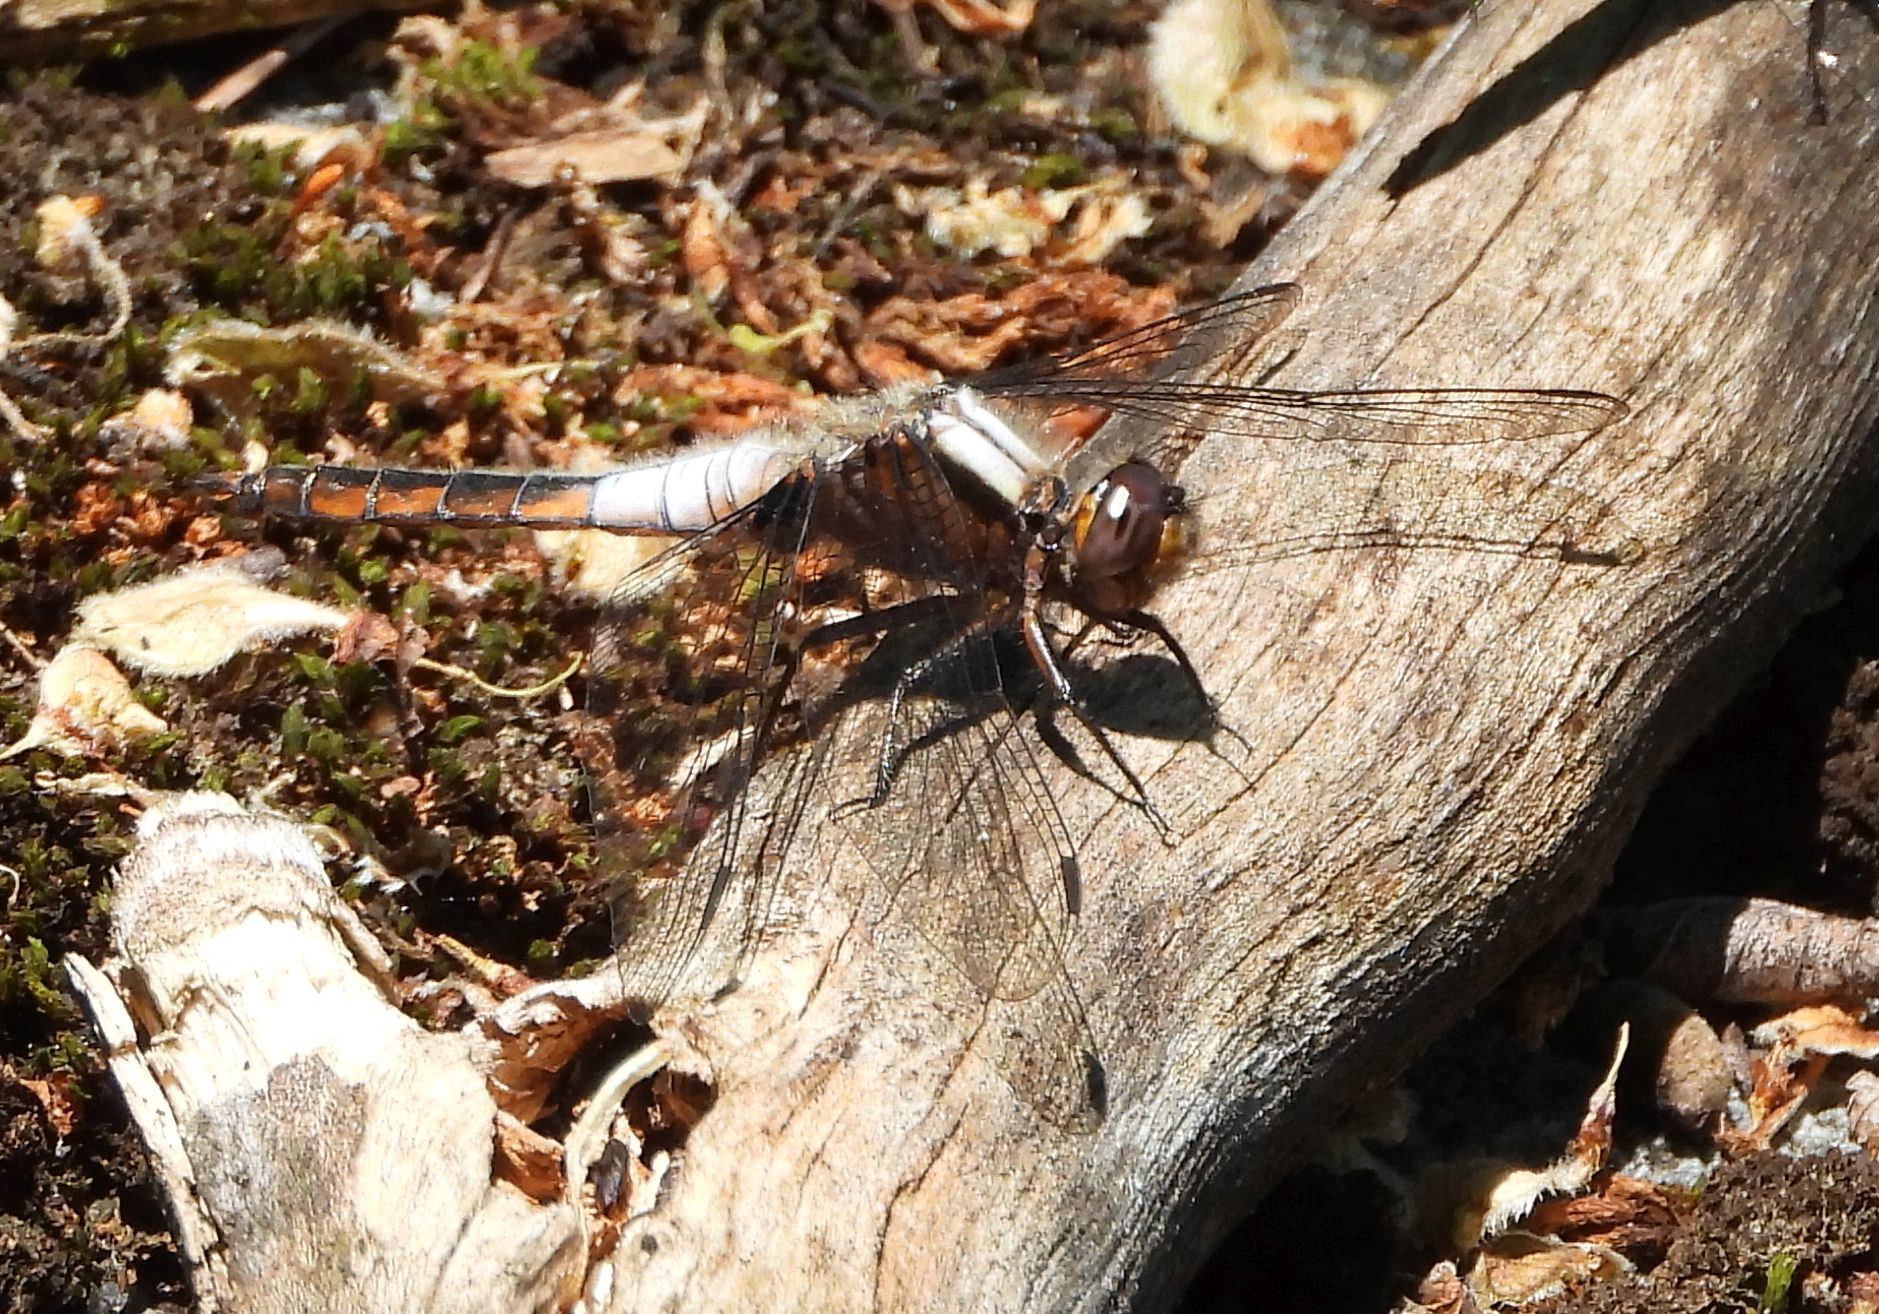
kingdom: Animalia
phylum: Arthropoda
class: Insecta
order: Odonata
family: Libellulidae
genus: Ladona
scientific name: Ladona julia
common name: Chalk-fronted corporal
